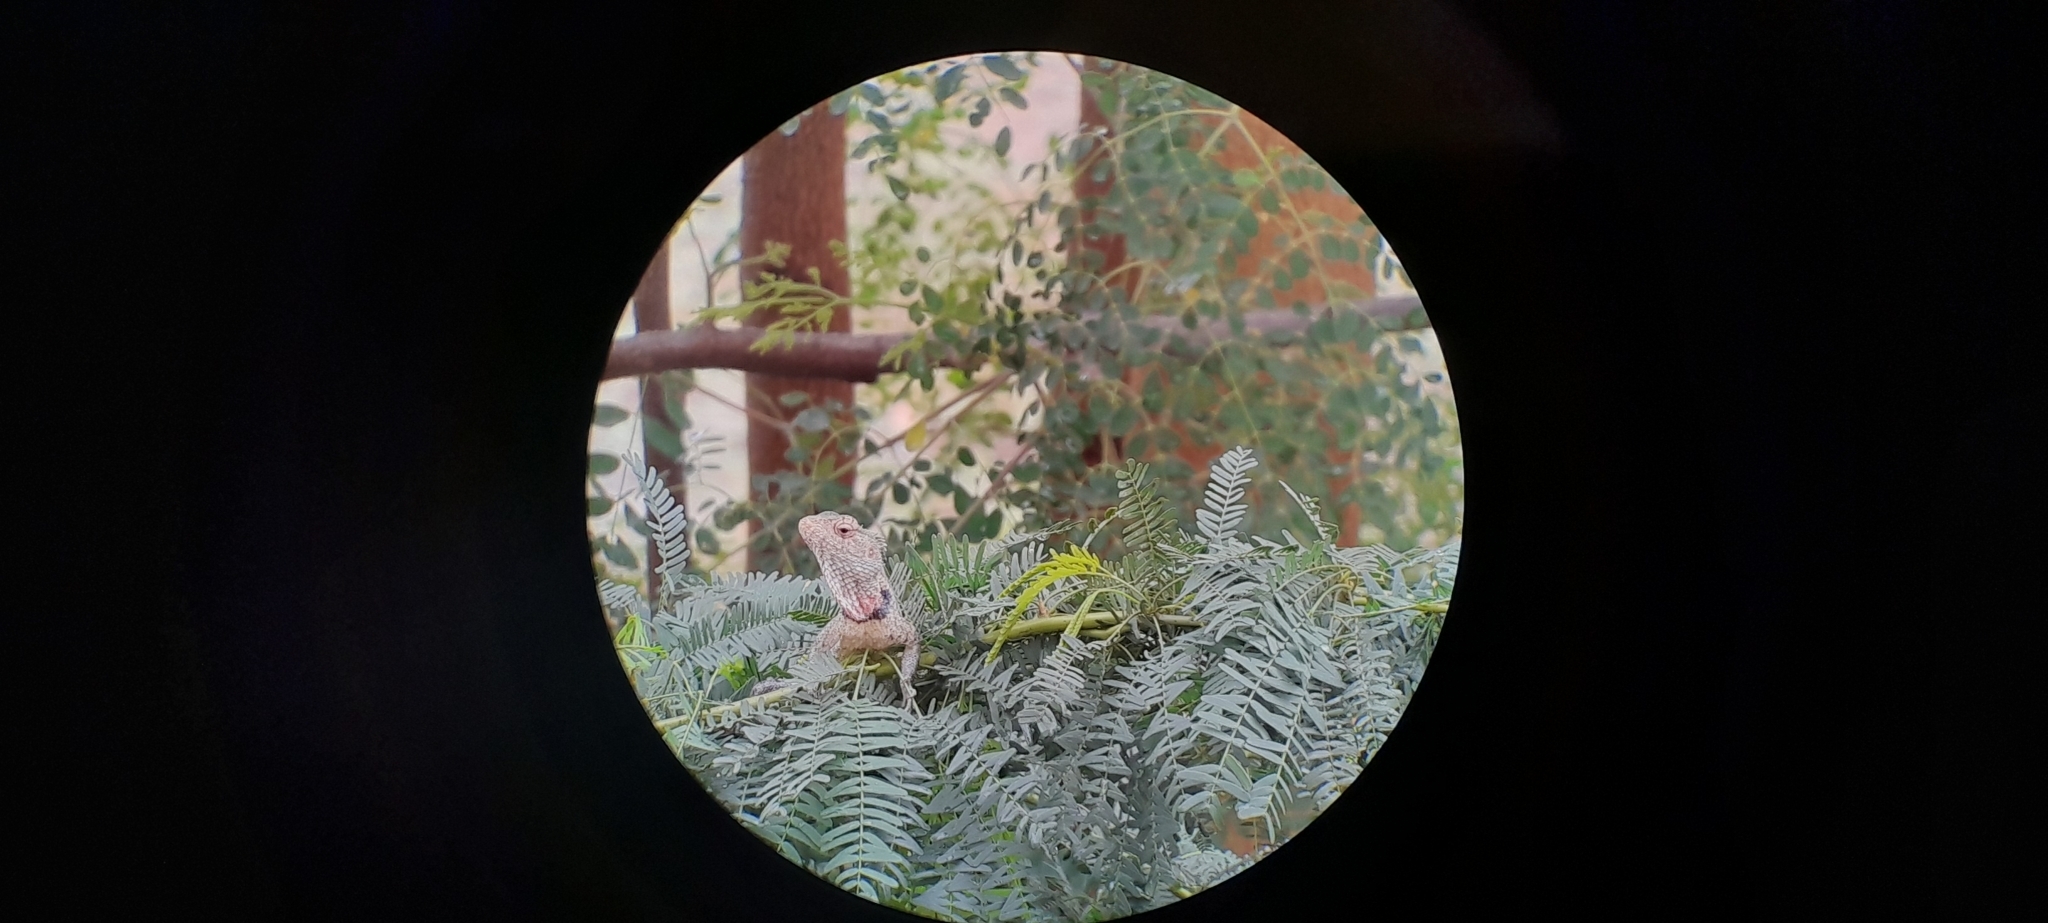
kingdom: Animalia
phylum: Chordata
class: Squamata
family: Agamidae
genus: Calotes
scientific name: Calotes versicolor
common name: Oriental garden lizard
